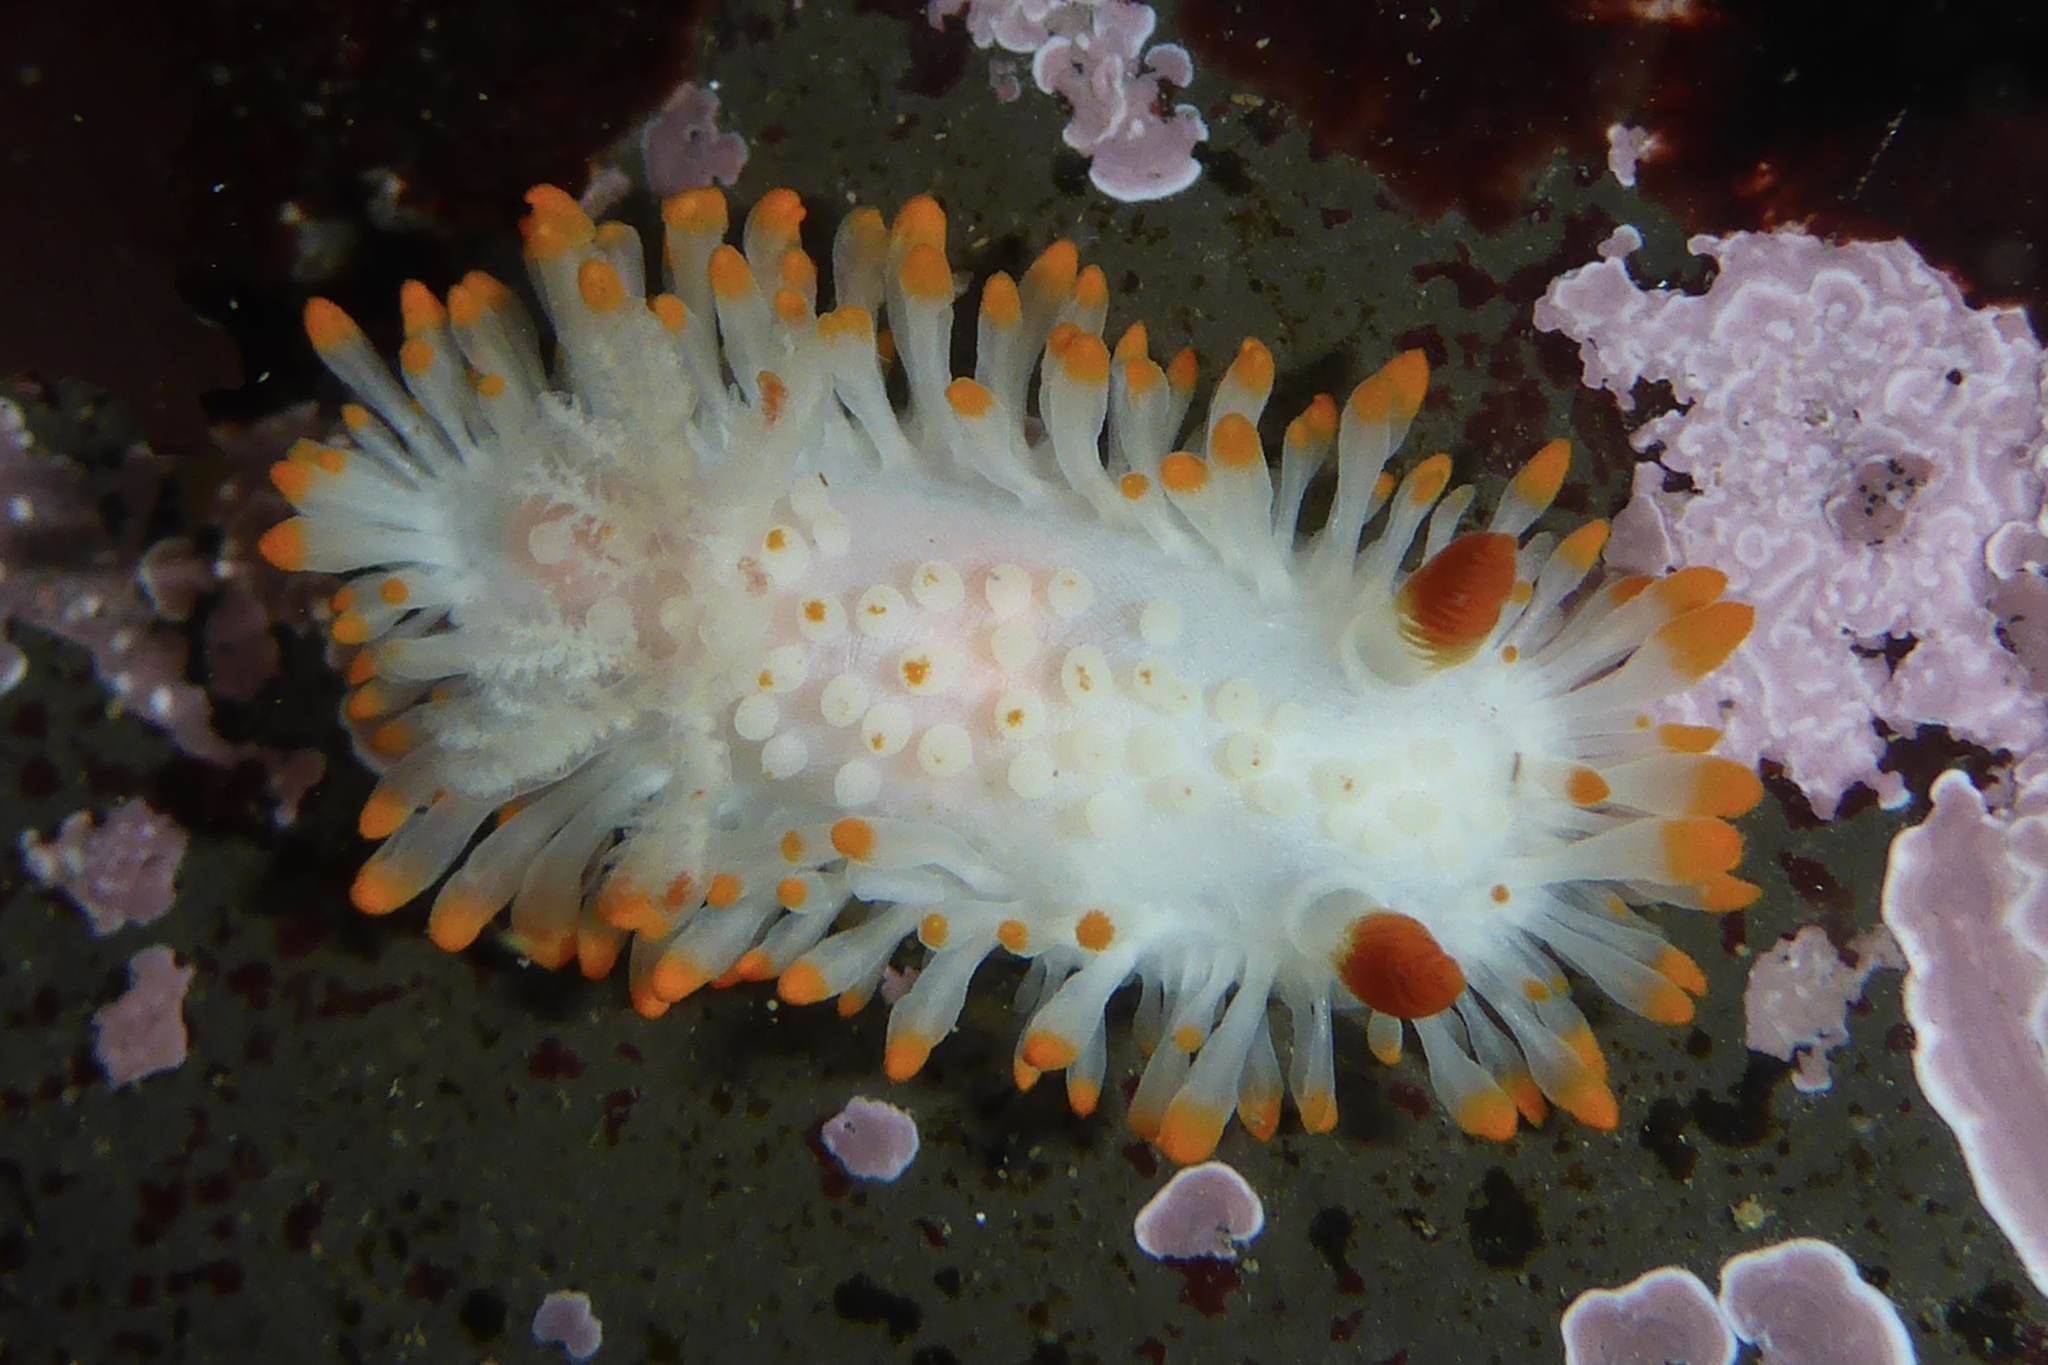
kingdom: Animalia
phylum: Mollusca
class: Gastropoda
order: Nudibranchia
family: Polyceridae
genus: Limacia
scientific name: Limacia cockerelli
